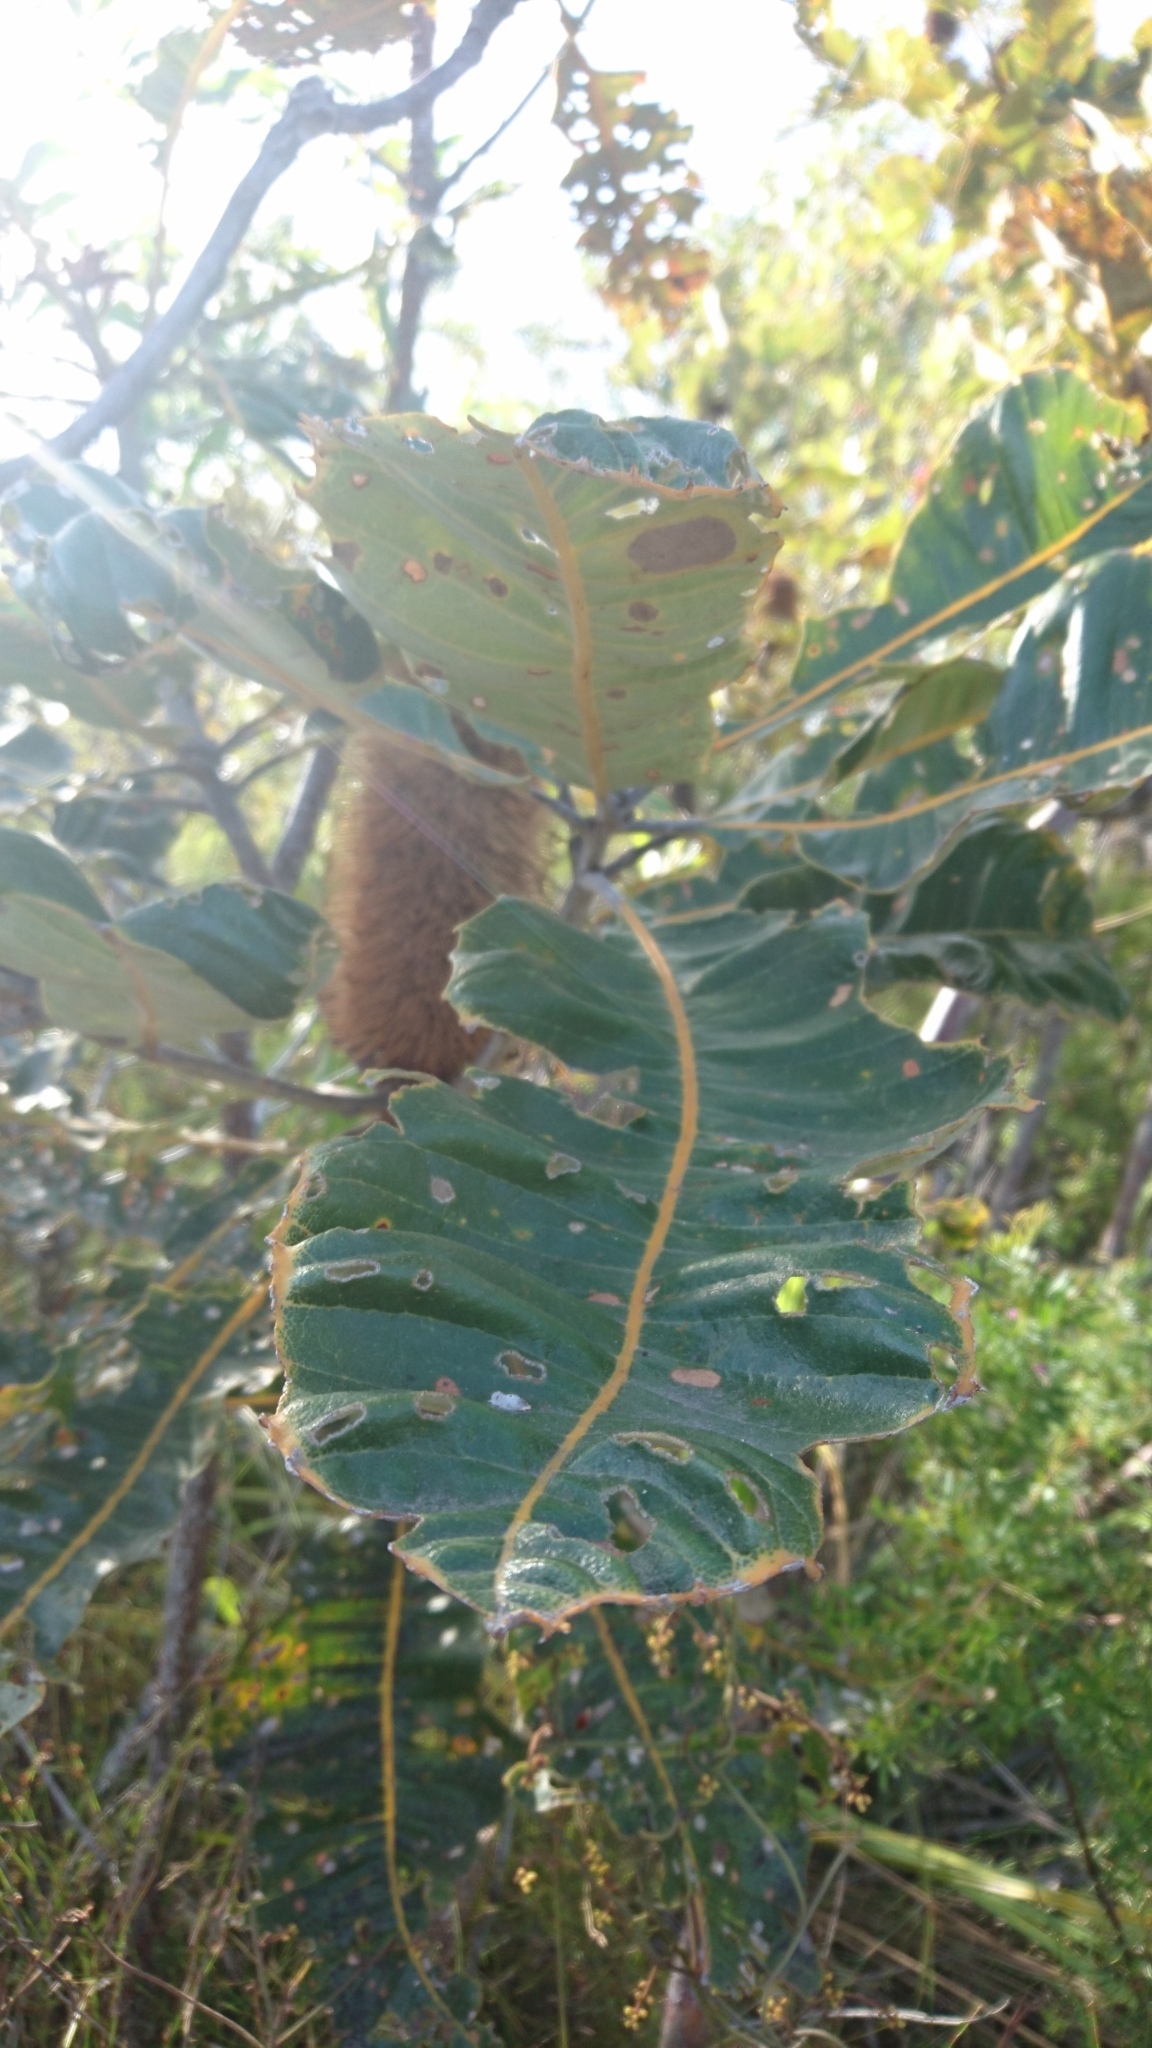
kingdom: Plantae
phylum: Tracheophyta
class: Magnoliopsida
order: Proteales
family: Proteaceae
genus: Banksia
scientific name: Banksia robur
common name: Broadleaf banksia
